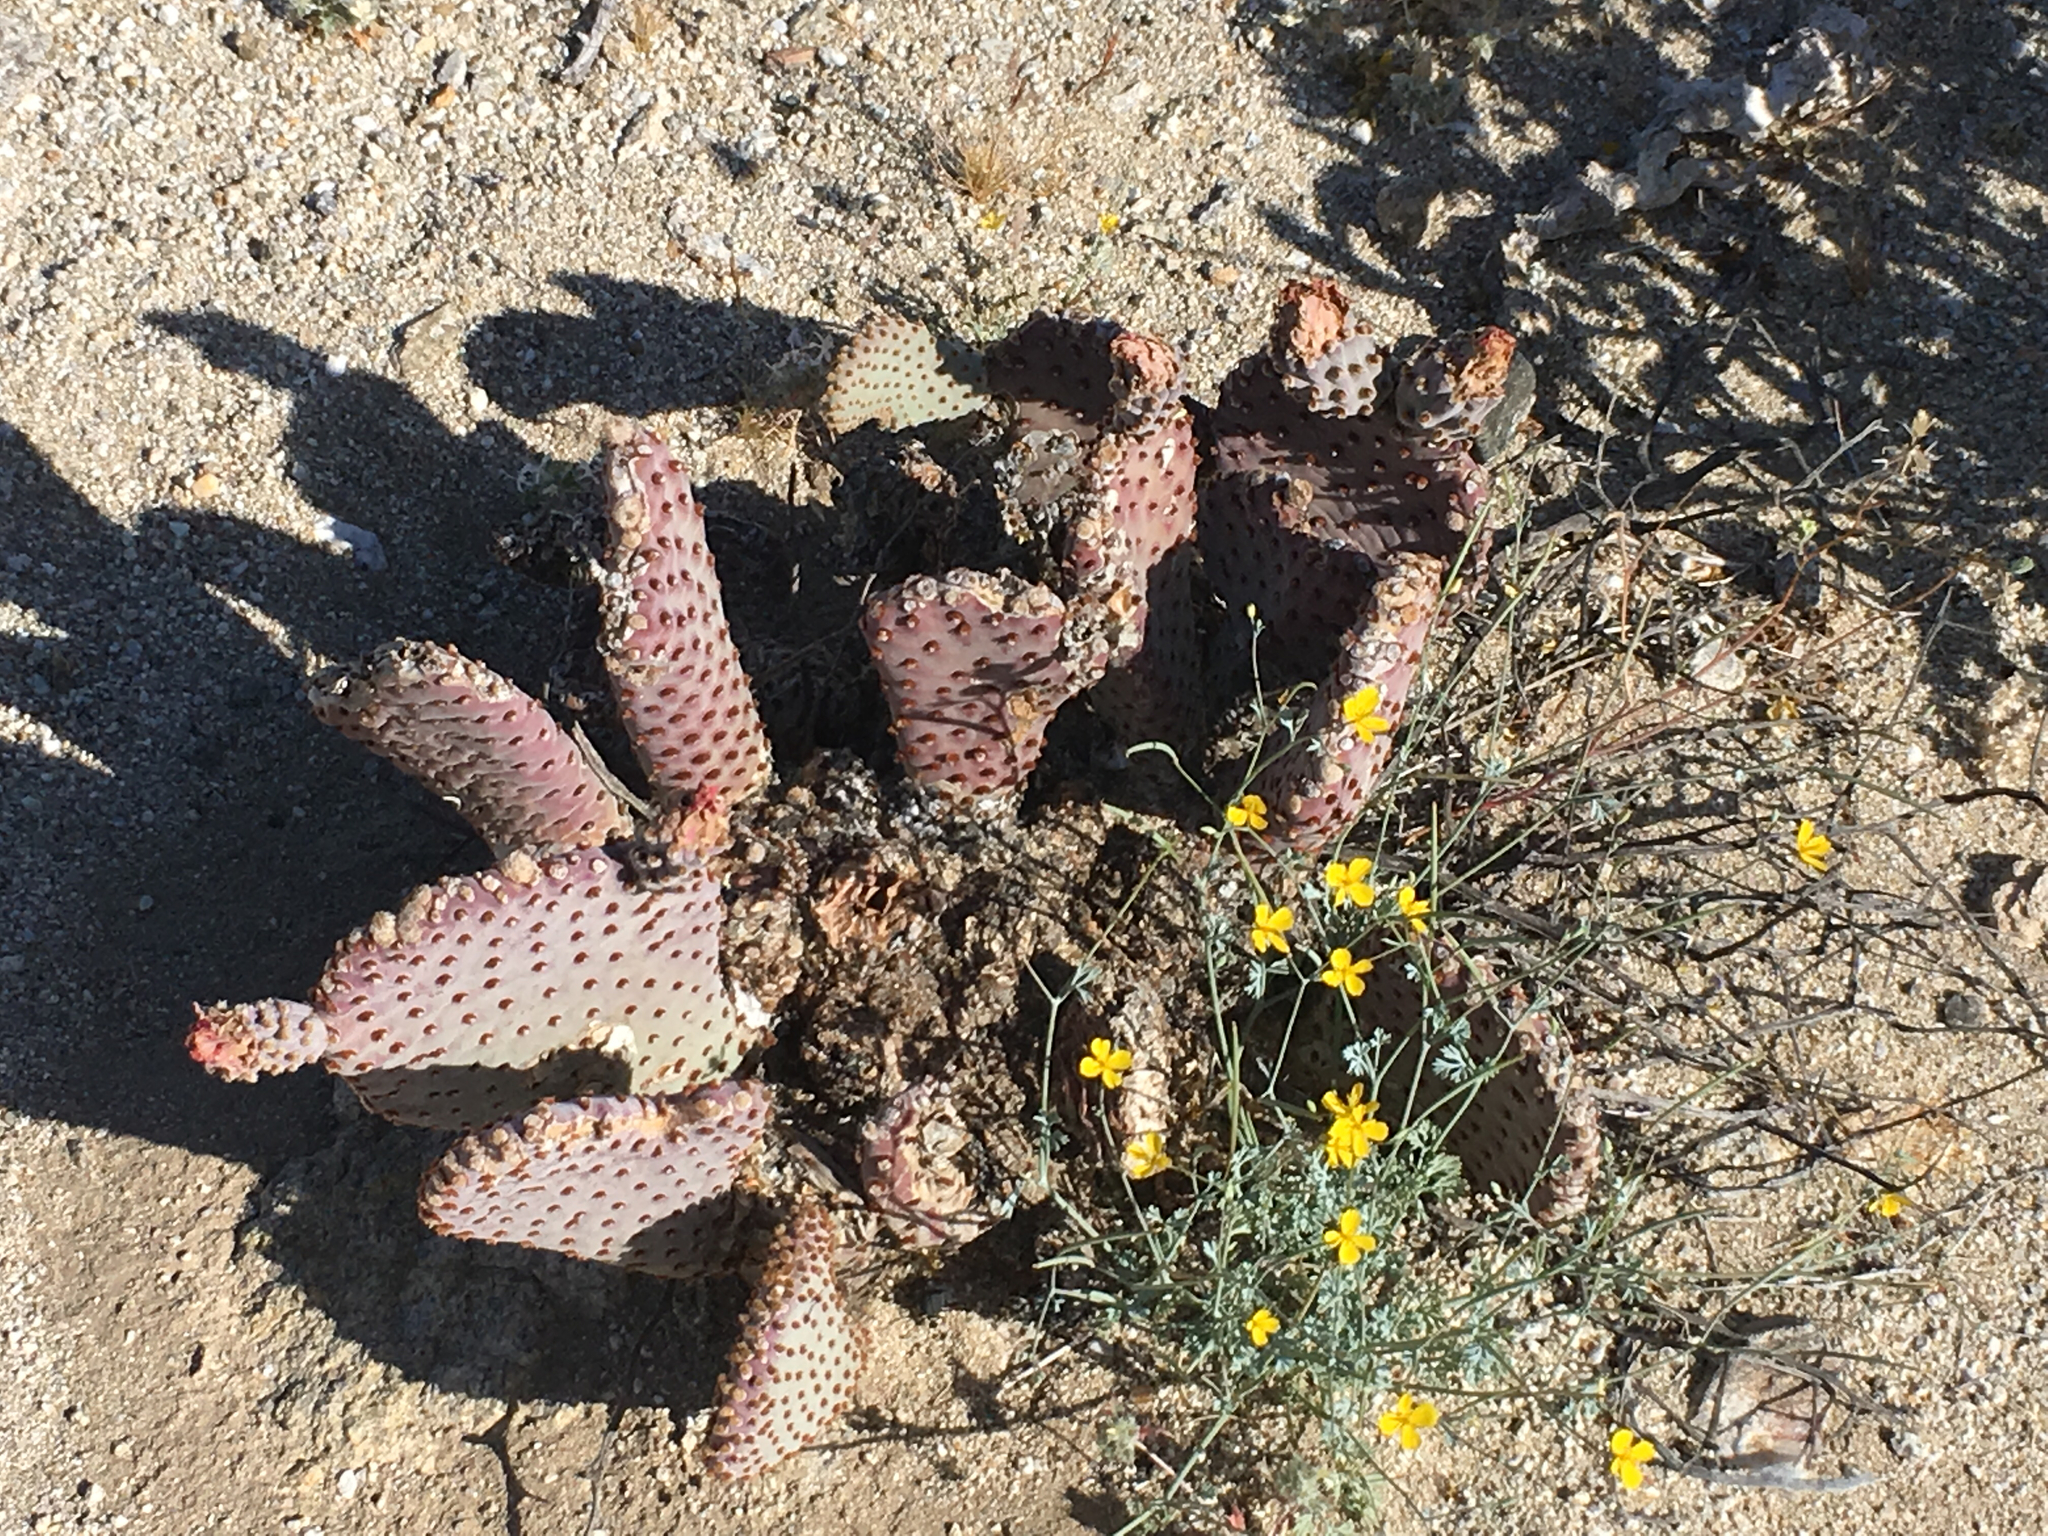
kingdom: Plantae
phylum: Tracheophyta
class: Magnoliopsida
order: Caryophyllales
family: Cactaceae
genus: Opuntia
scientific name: Opuntia basilaris
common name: Beavertail prickly-pear
